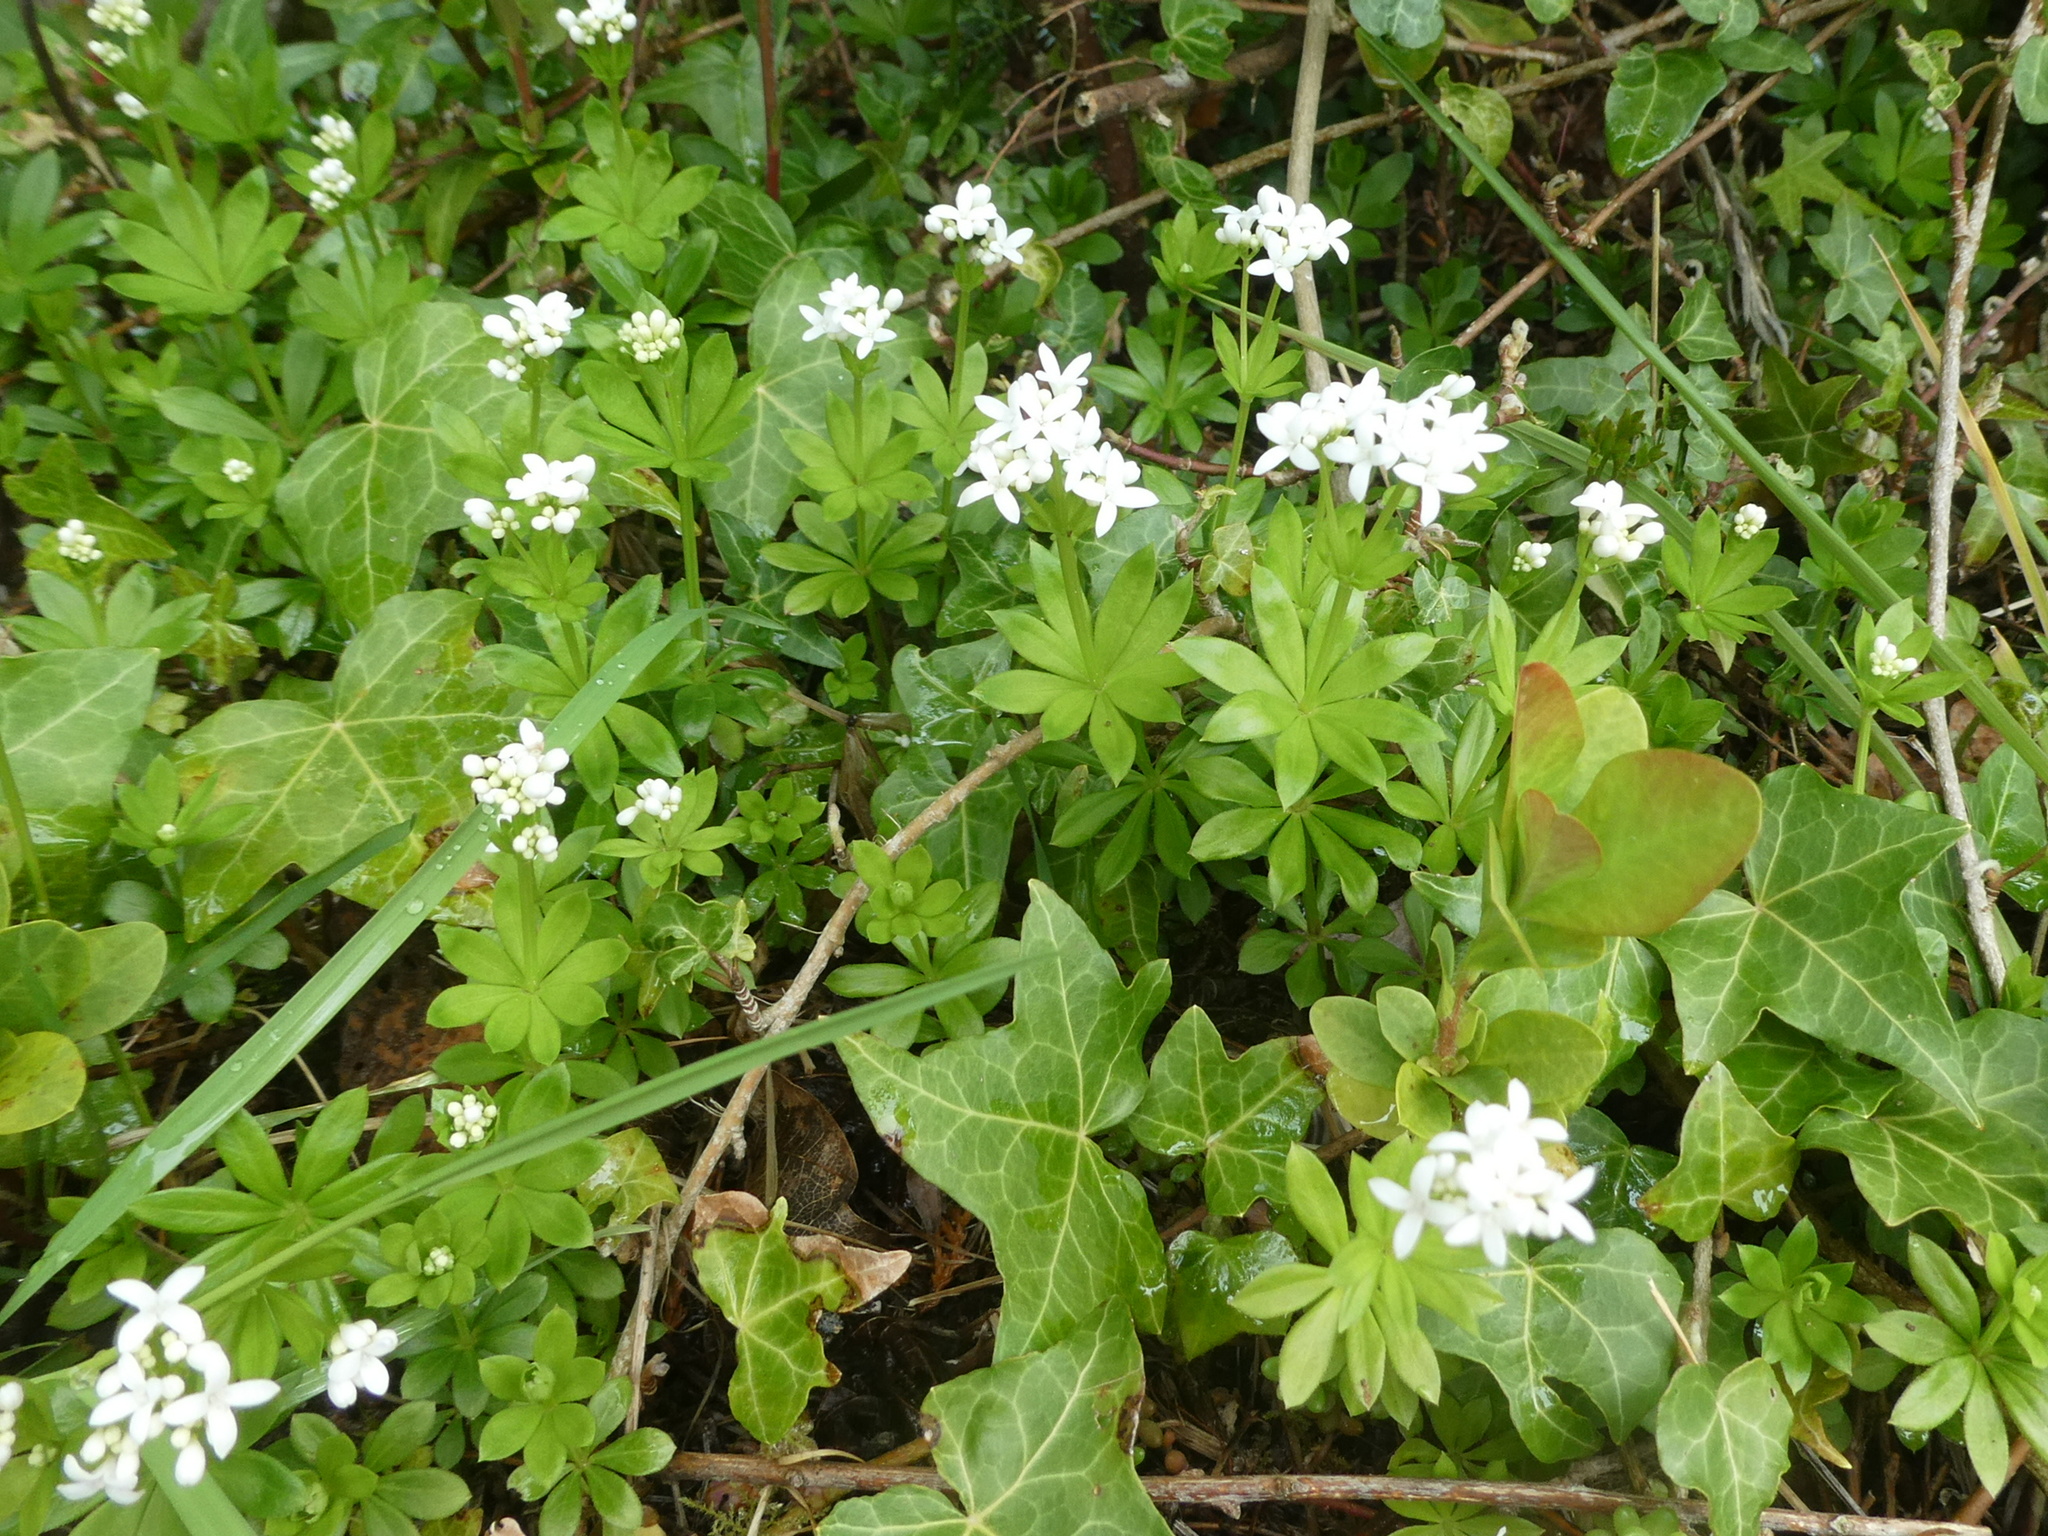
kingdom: Plantae
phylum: Tracheophyta
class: Magnoliopsida
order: Gentianales
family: Rubiaceae
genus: Galium
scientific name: Galium odoratum
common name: Sweet woodruff
